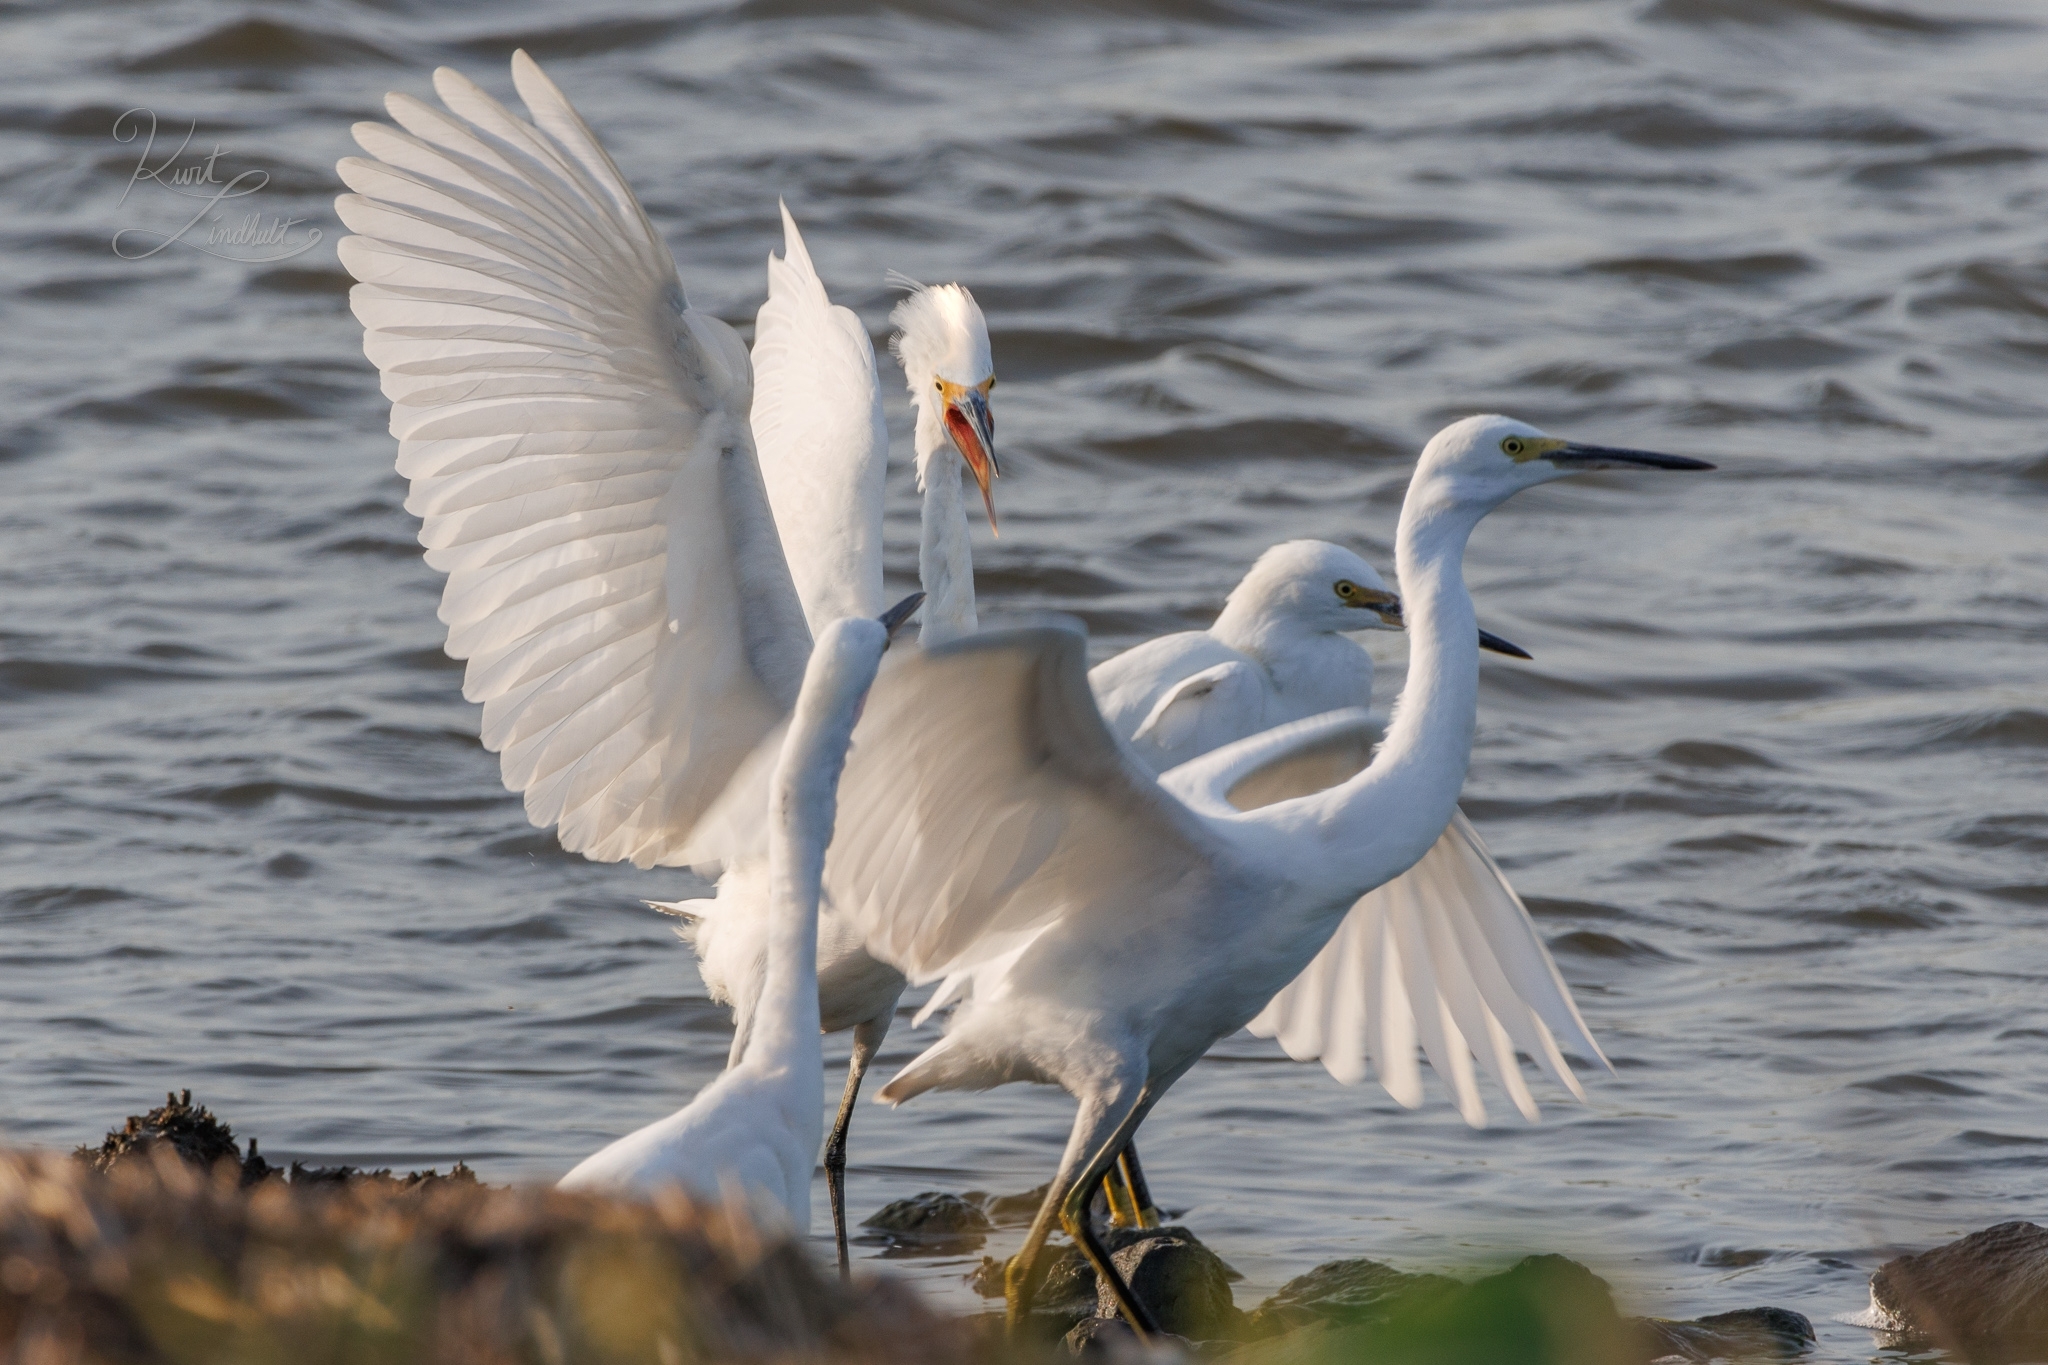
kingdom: Animalia
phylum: Chordata
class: Aves
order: Pelecaniformes
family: Ardeidae
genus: Egretta
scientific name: Egretta thula
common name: Snowy egret
